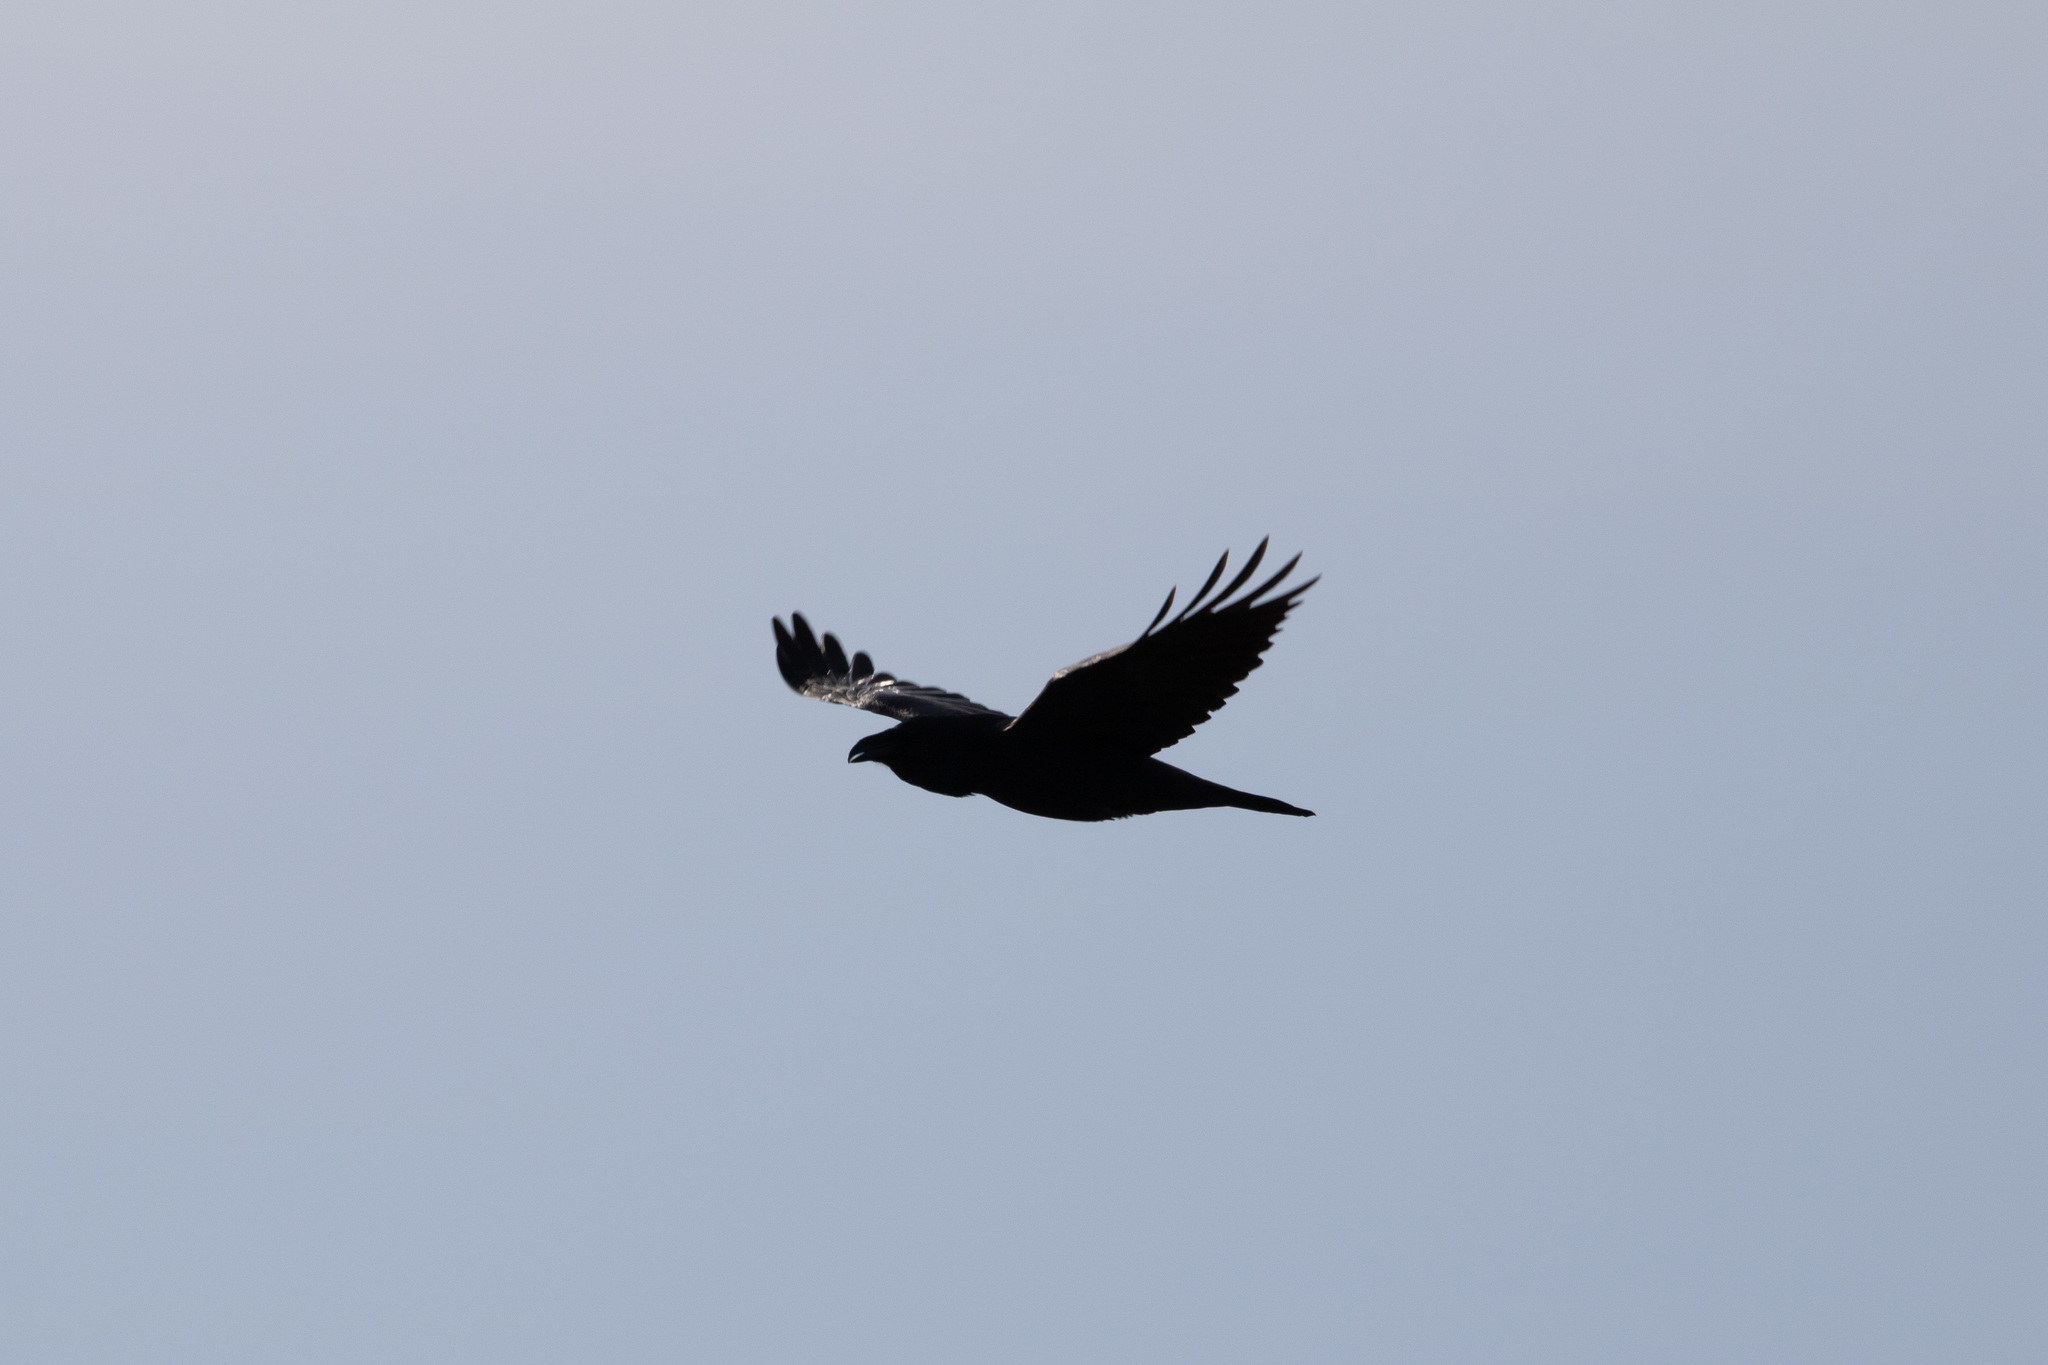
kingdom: Animalia
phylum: Chordata
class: Aves
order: Passeriformes
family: Corvidae
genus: Corvus
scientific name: Corvus corax
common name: Common raven
